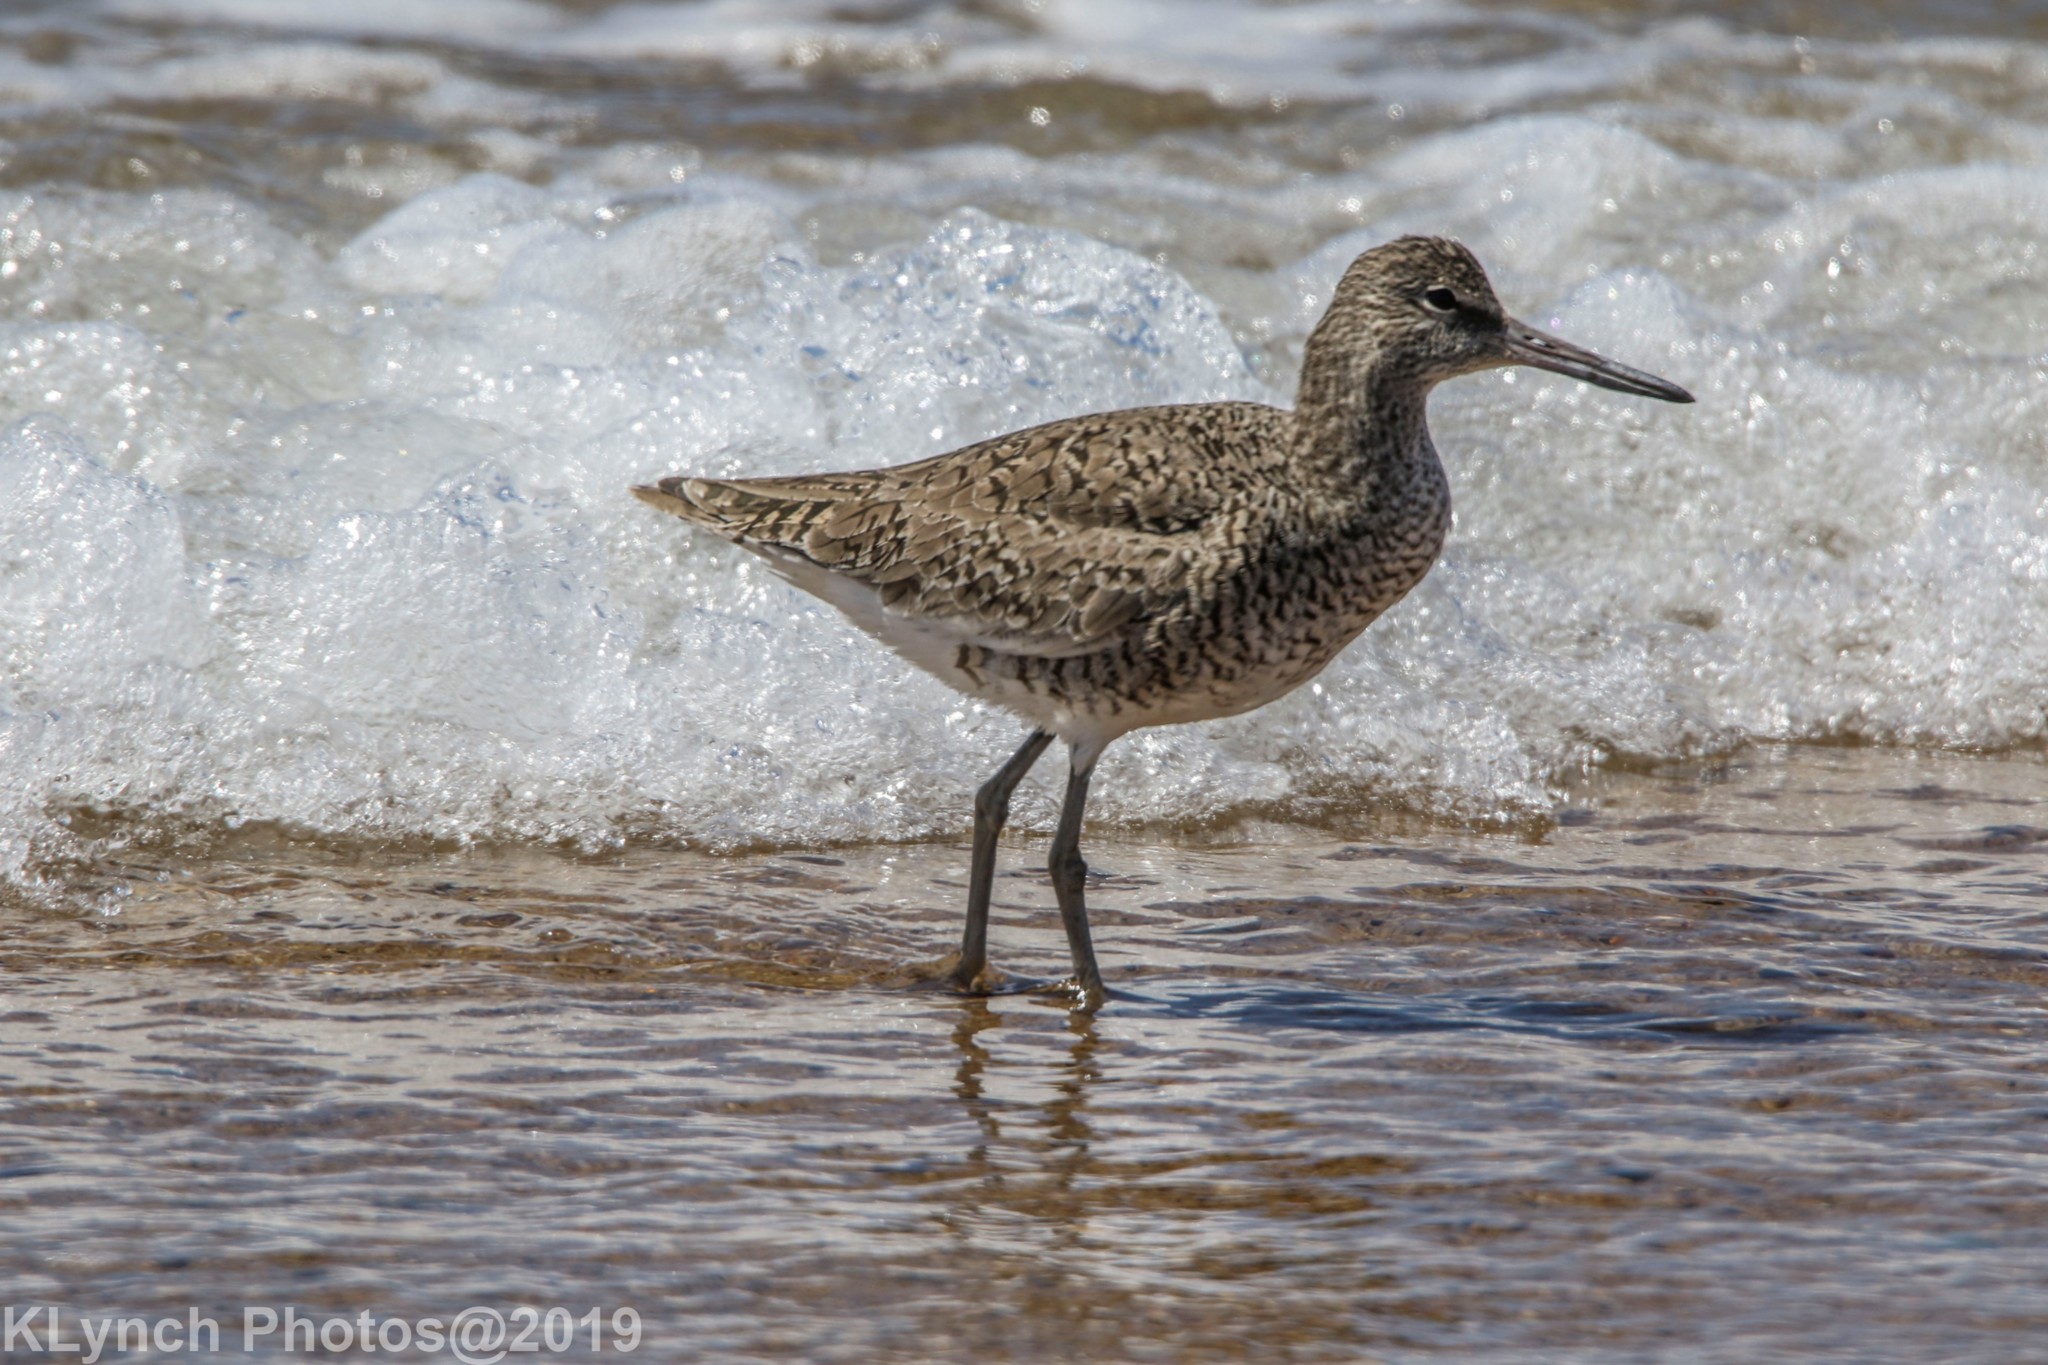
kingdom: Animalia
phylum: Chordata
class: Aves
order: Charadriiformes
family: Scolopacidae
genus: Tringa
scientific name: Tringa semipalmata
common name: Willet
